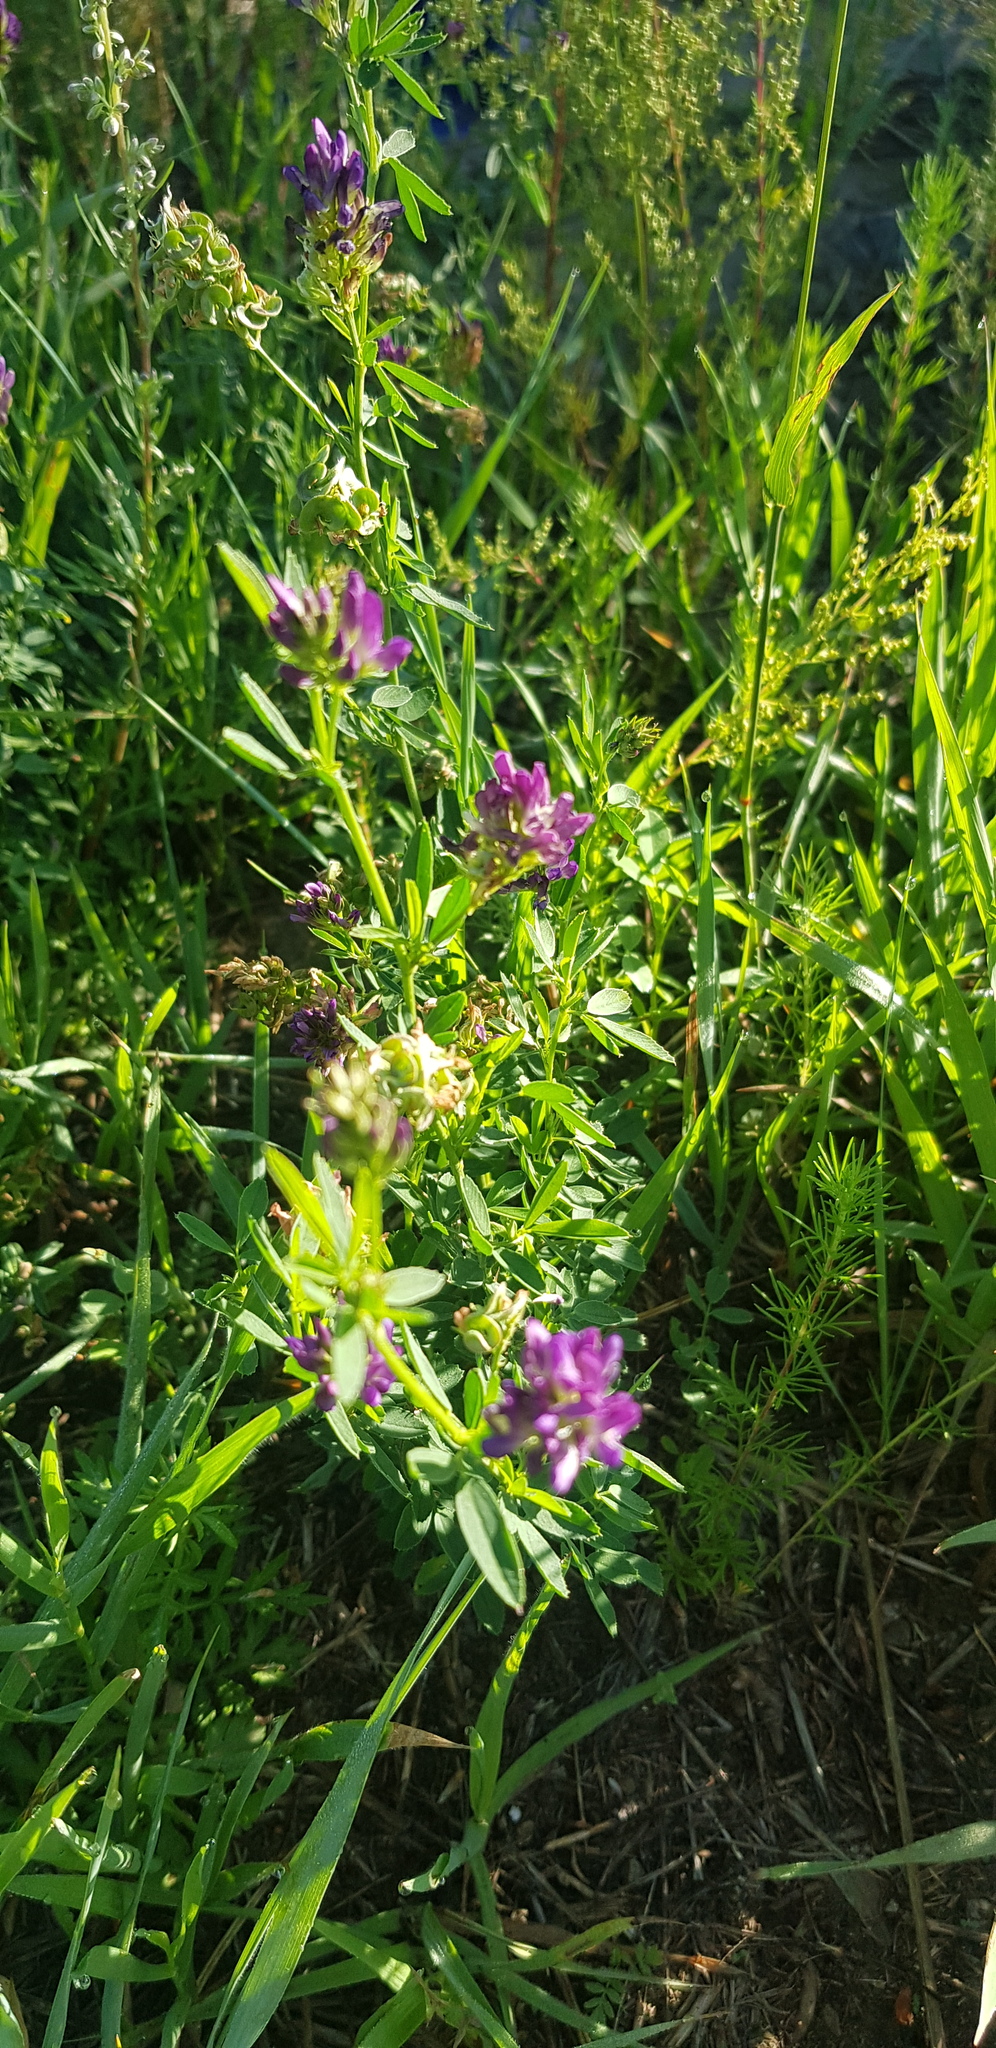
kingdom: Plantae
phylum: Tracheophyta
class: Magnoliopsida
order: Fabales
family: Fabaceae
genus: Trifolium
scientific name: Trifolium lupinaster
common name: Lupine clover
